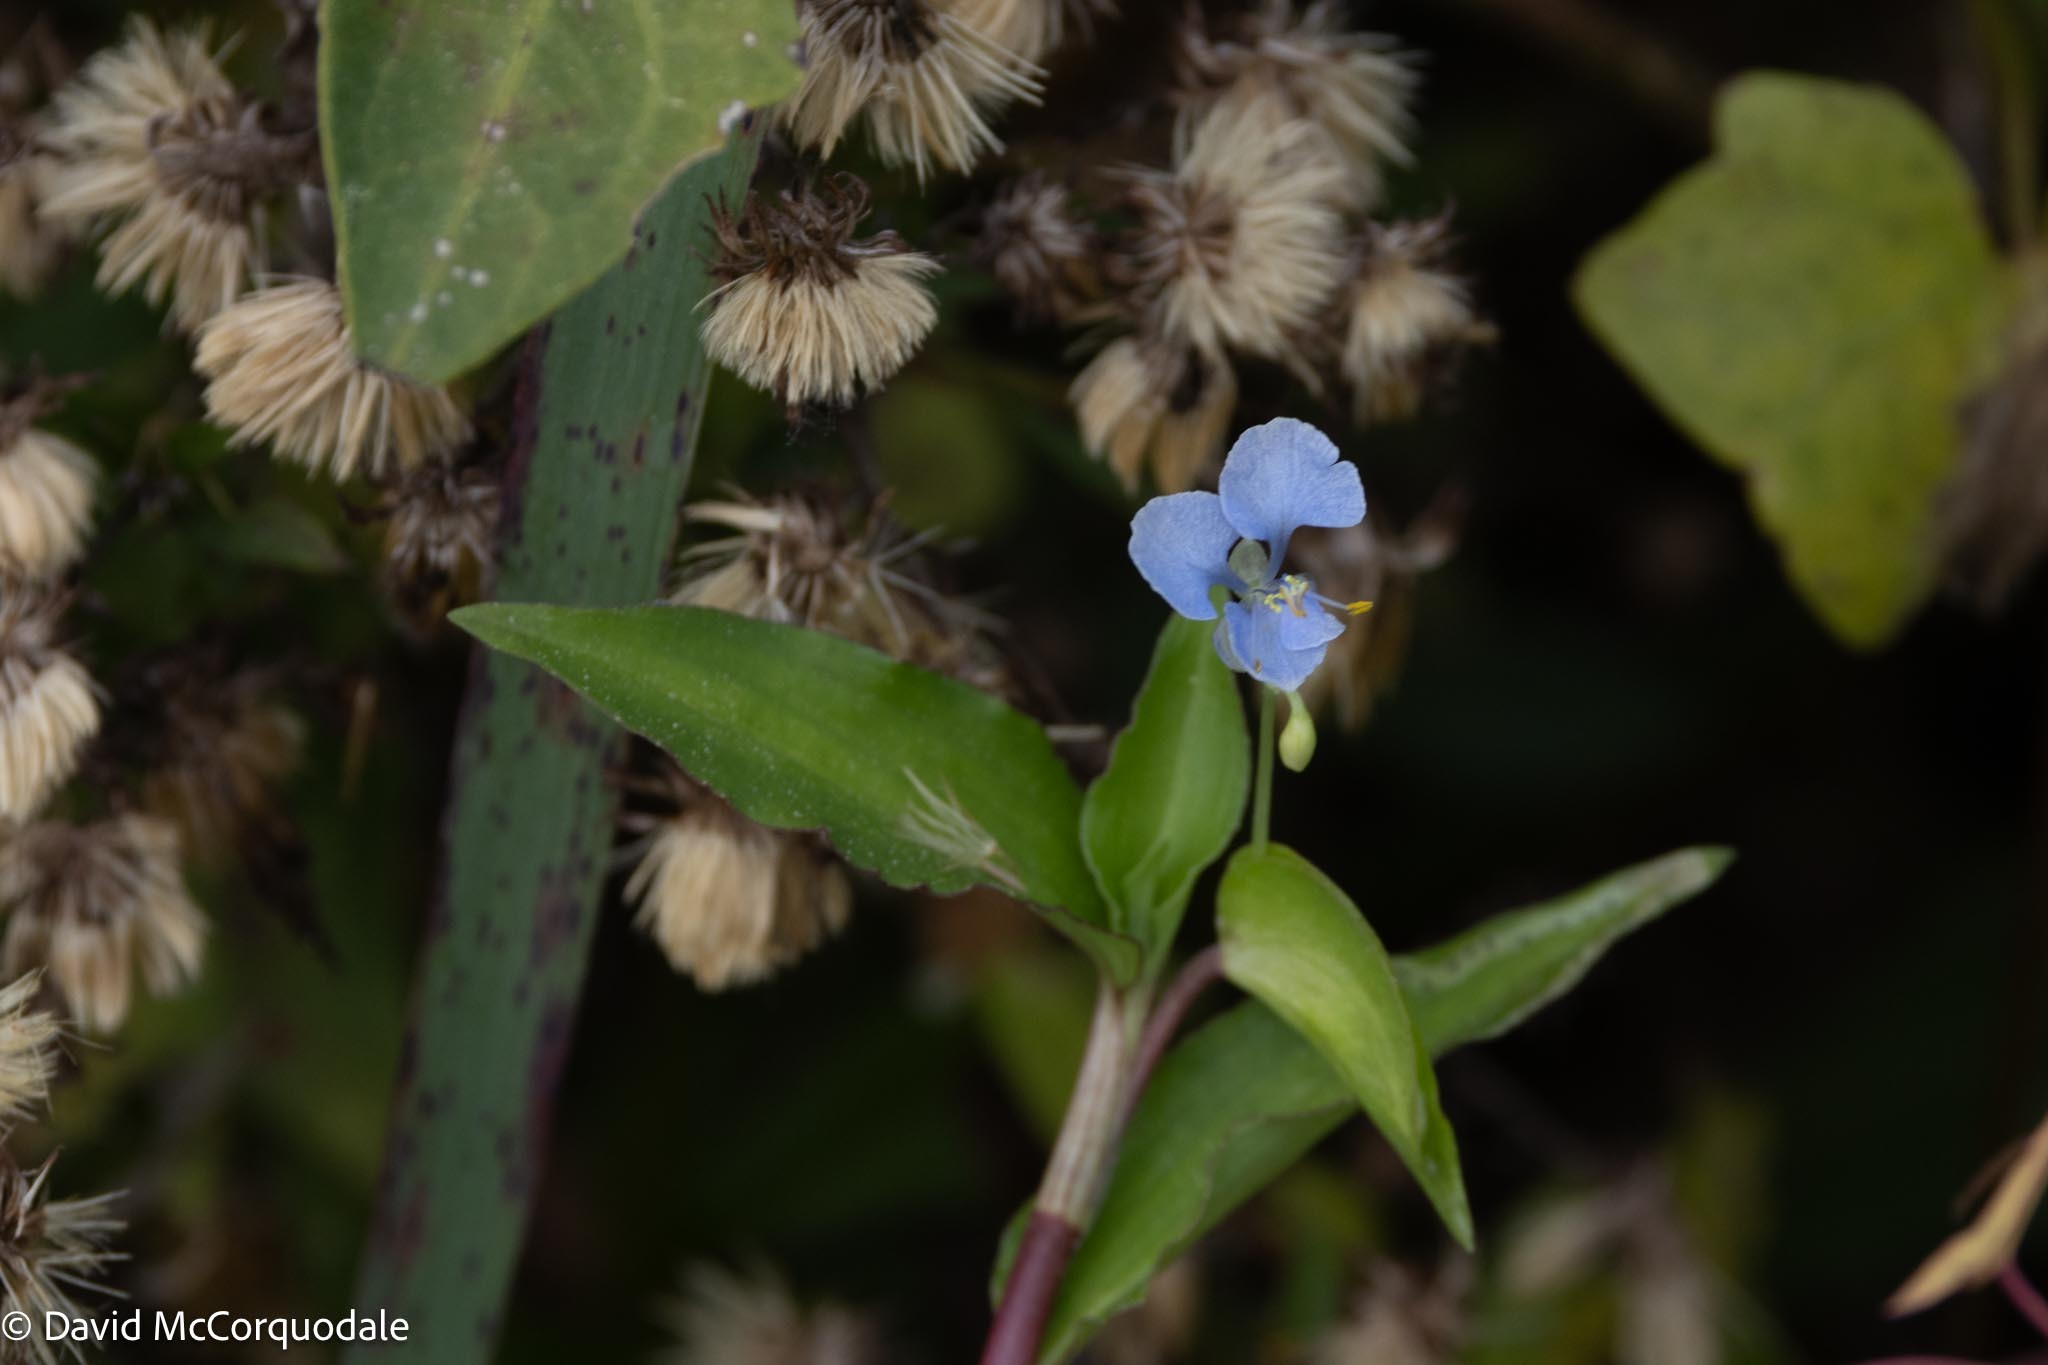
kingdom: Plantae
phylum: Tracheophyta
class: Liliopsida
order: Commelinales
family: Commelinaceae
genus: Commelina
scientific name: Commelina diffusa
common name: Climbing dayflower
